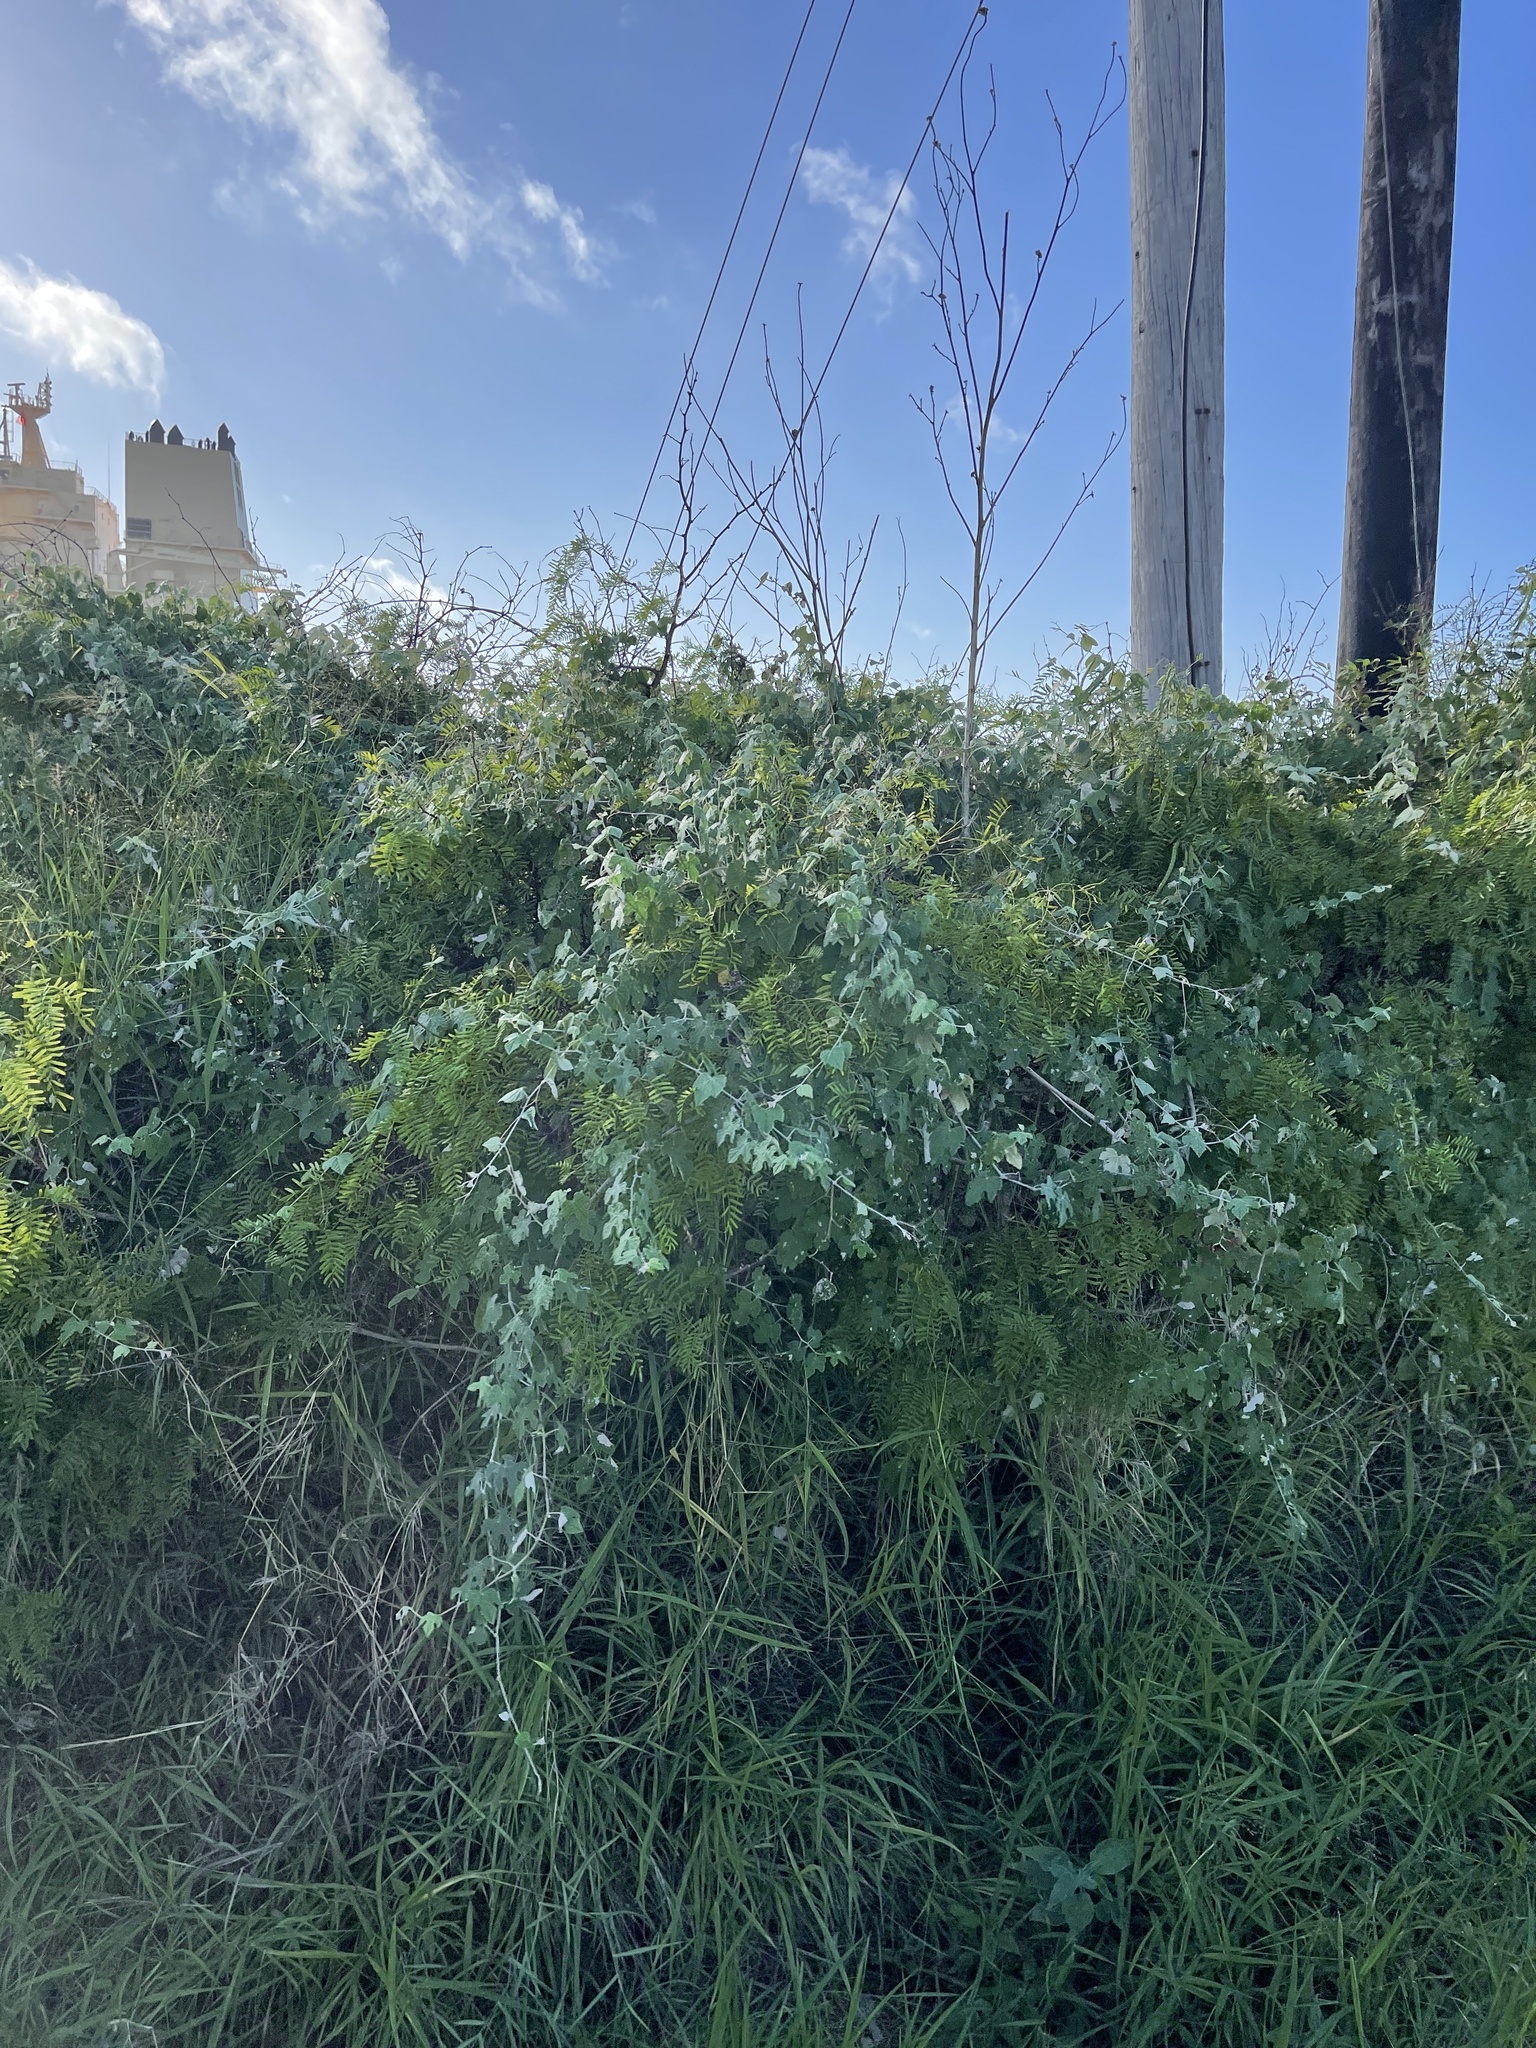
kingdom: Plantae
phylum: Tracheophyta
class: Magnoliopsida
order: Vitales
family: Vitaceae
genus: Vitis
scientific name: Vitis mustangensis
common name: Mustang grape
